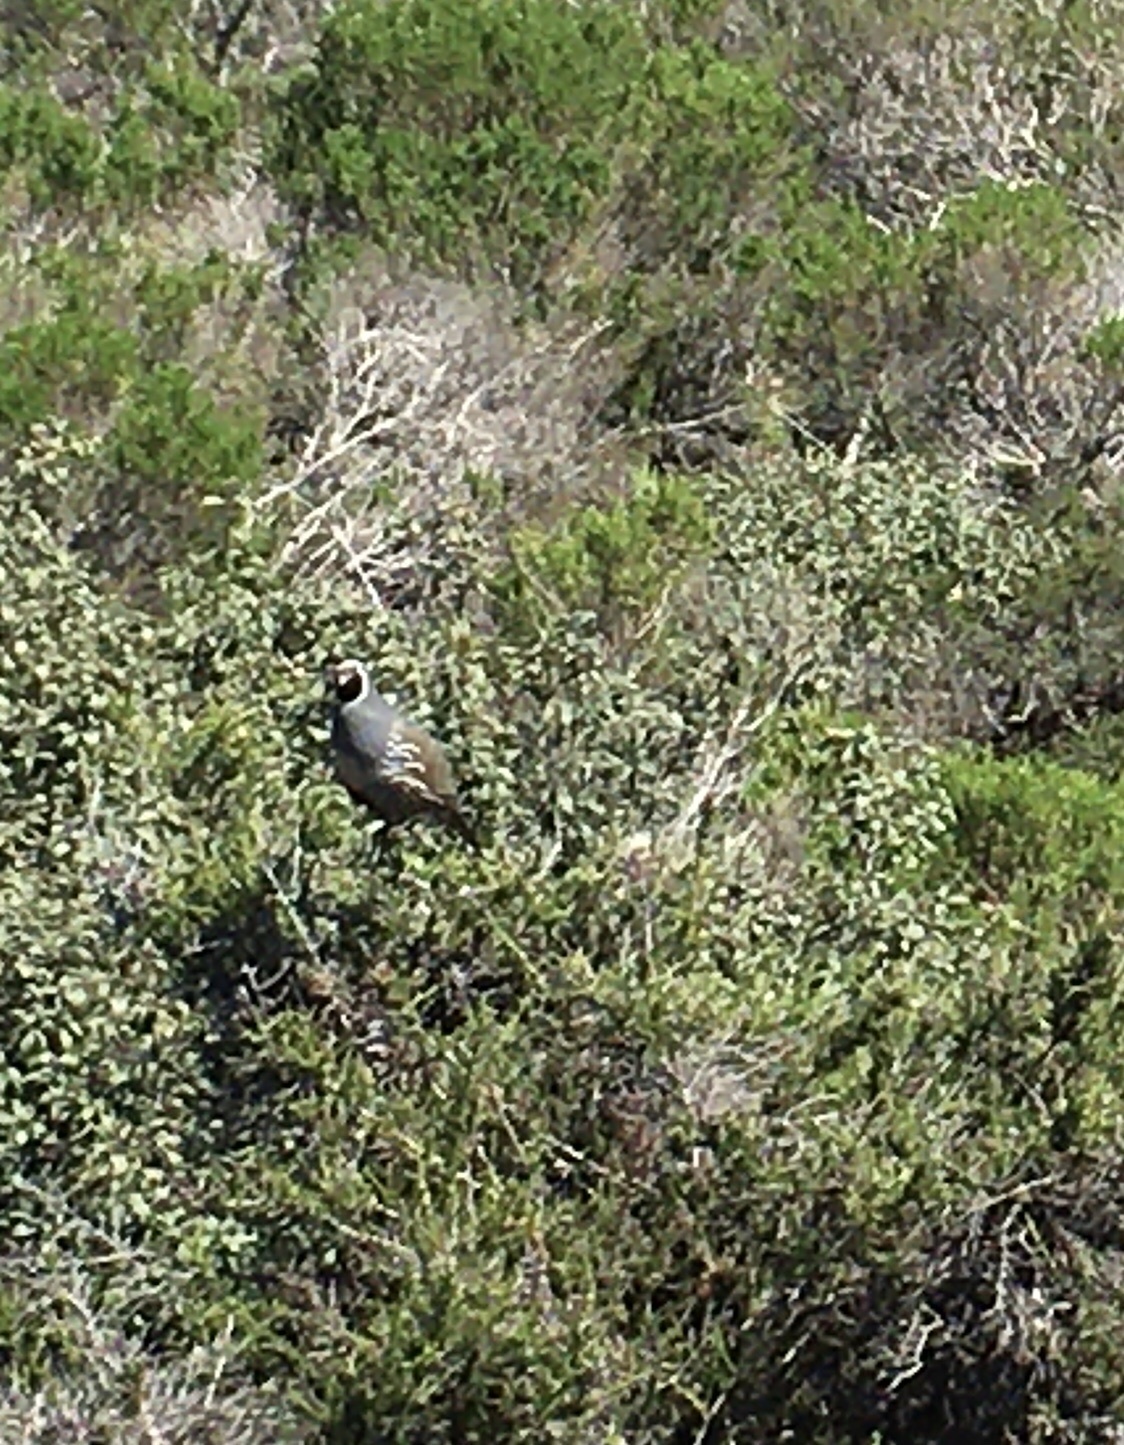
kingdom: Animalia
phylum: Chordata
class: Aves
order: Galliformes
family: Odontophoridae
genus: Callipepla
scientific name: Callipepla californica
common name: California quail
